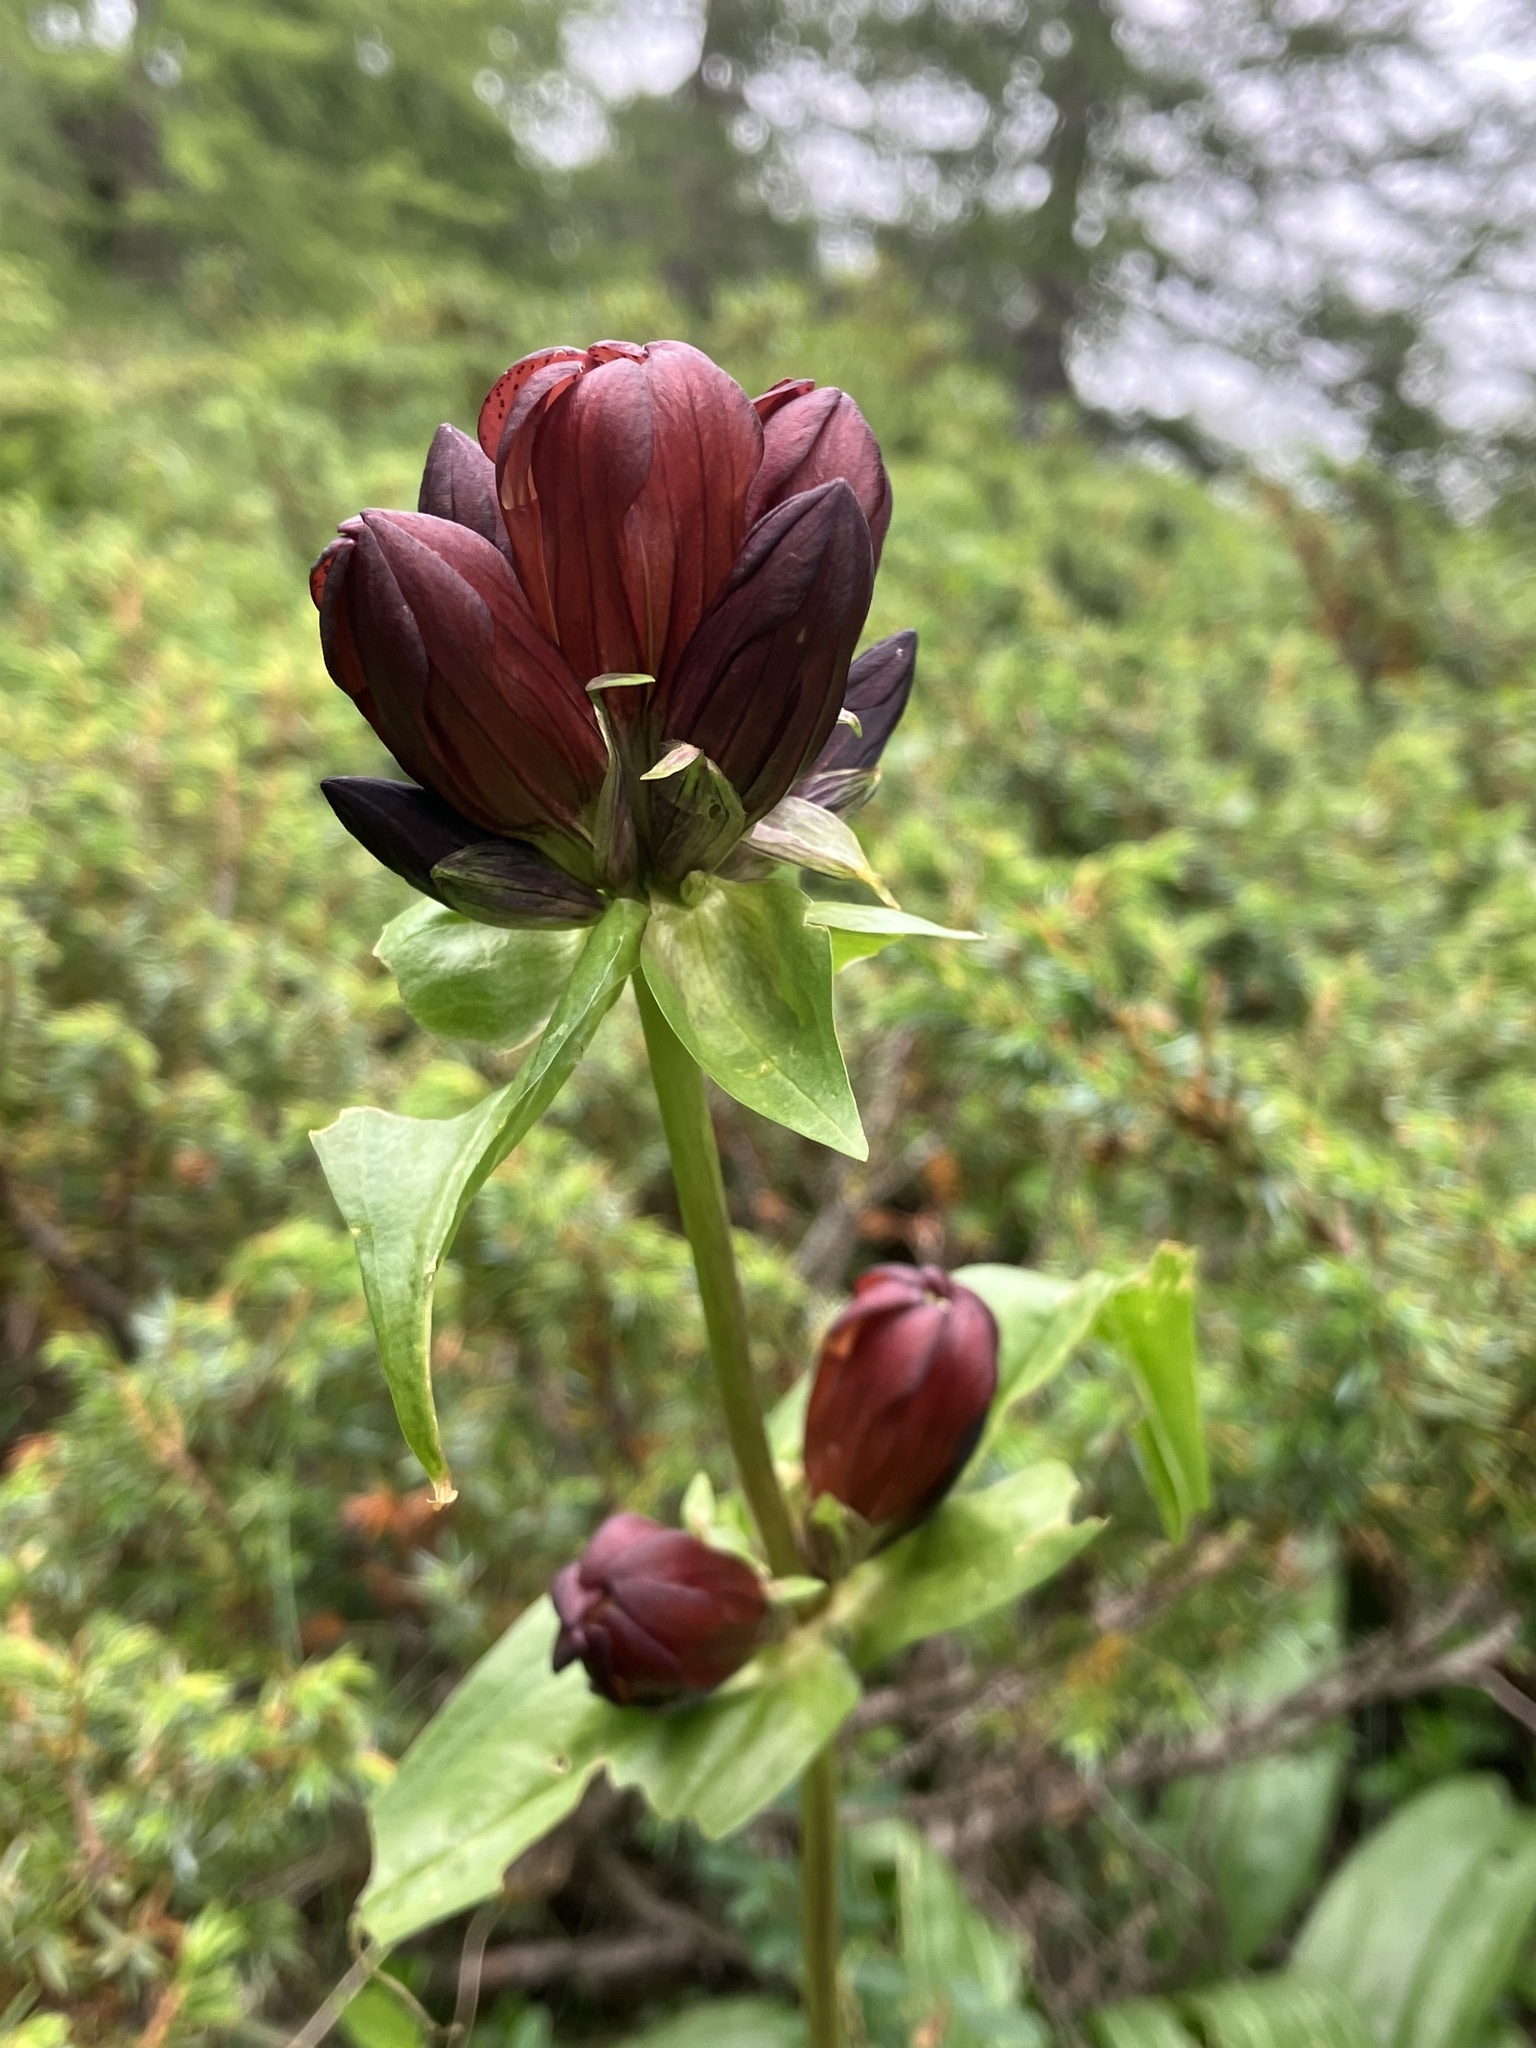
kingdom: Plantae
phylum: Tracheophyta
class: Magnoliopsida
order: Gentianales
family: Gentianaceae
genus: Gentiana
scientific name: Gentiana purpurea
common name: Purple gentian
